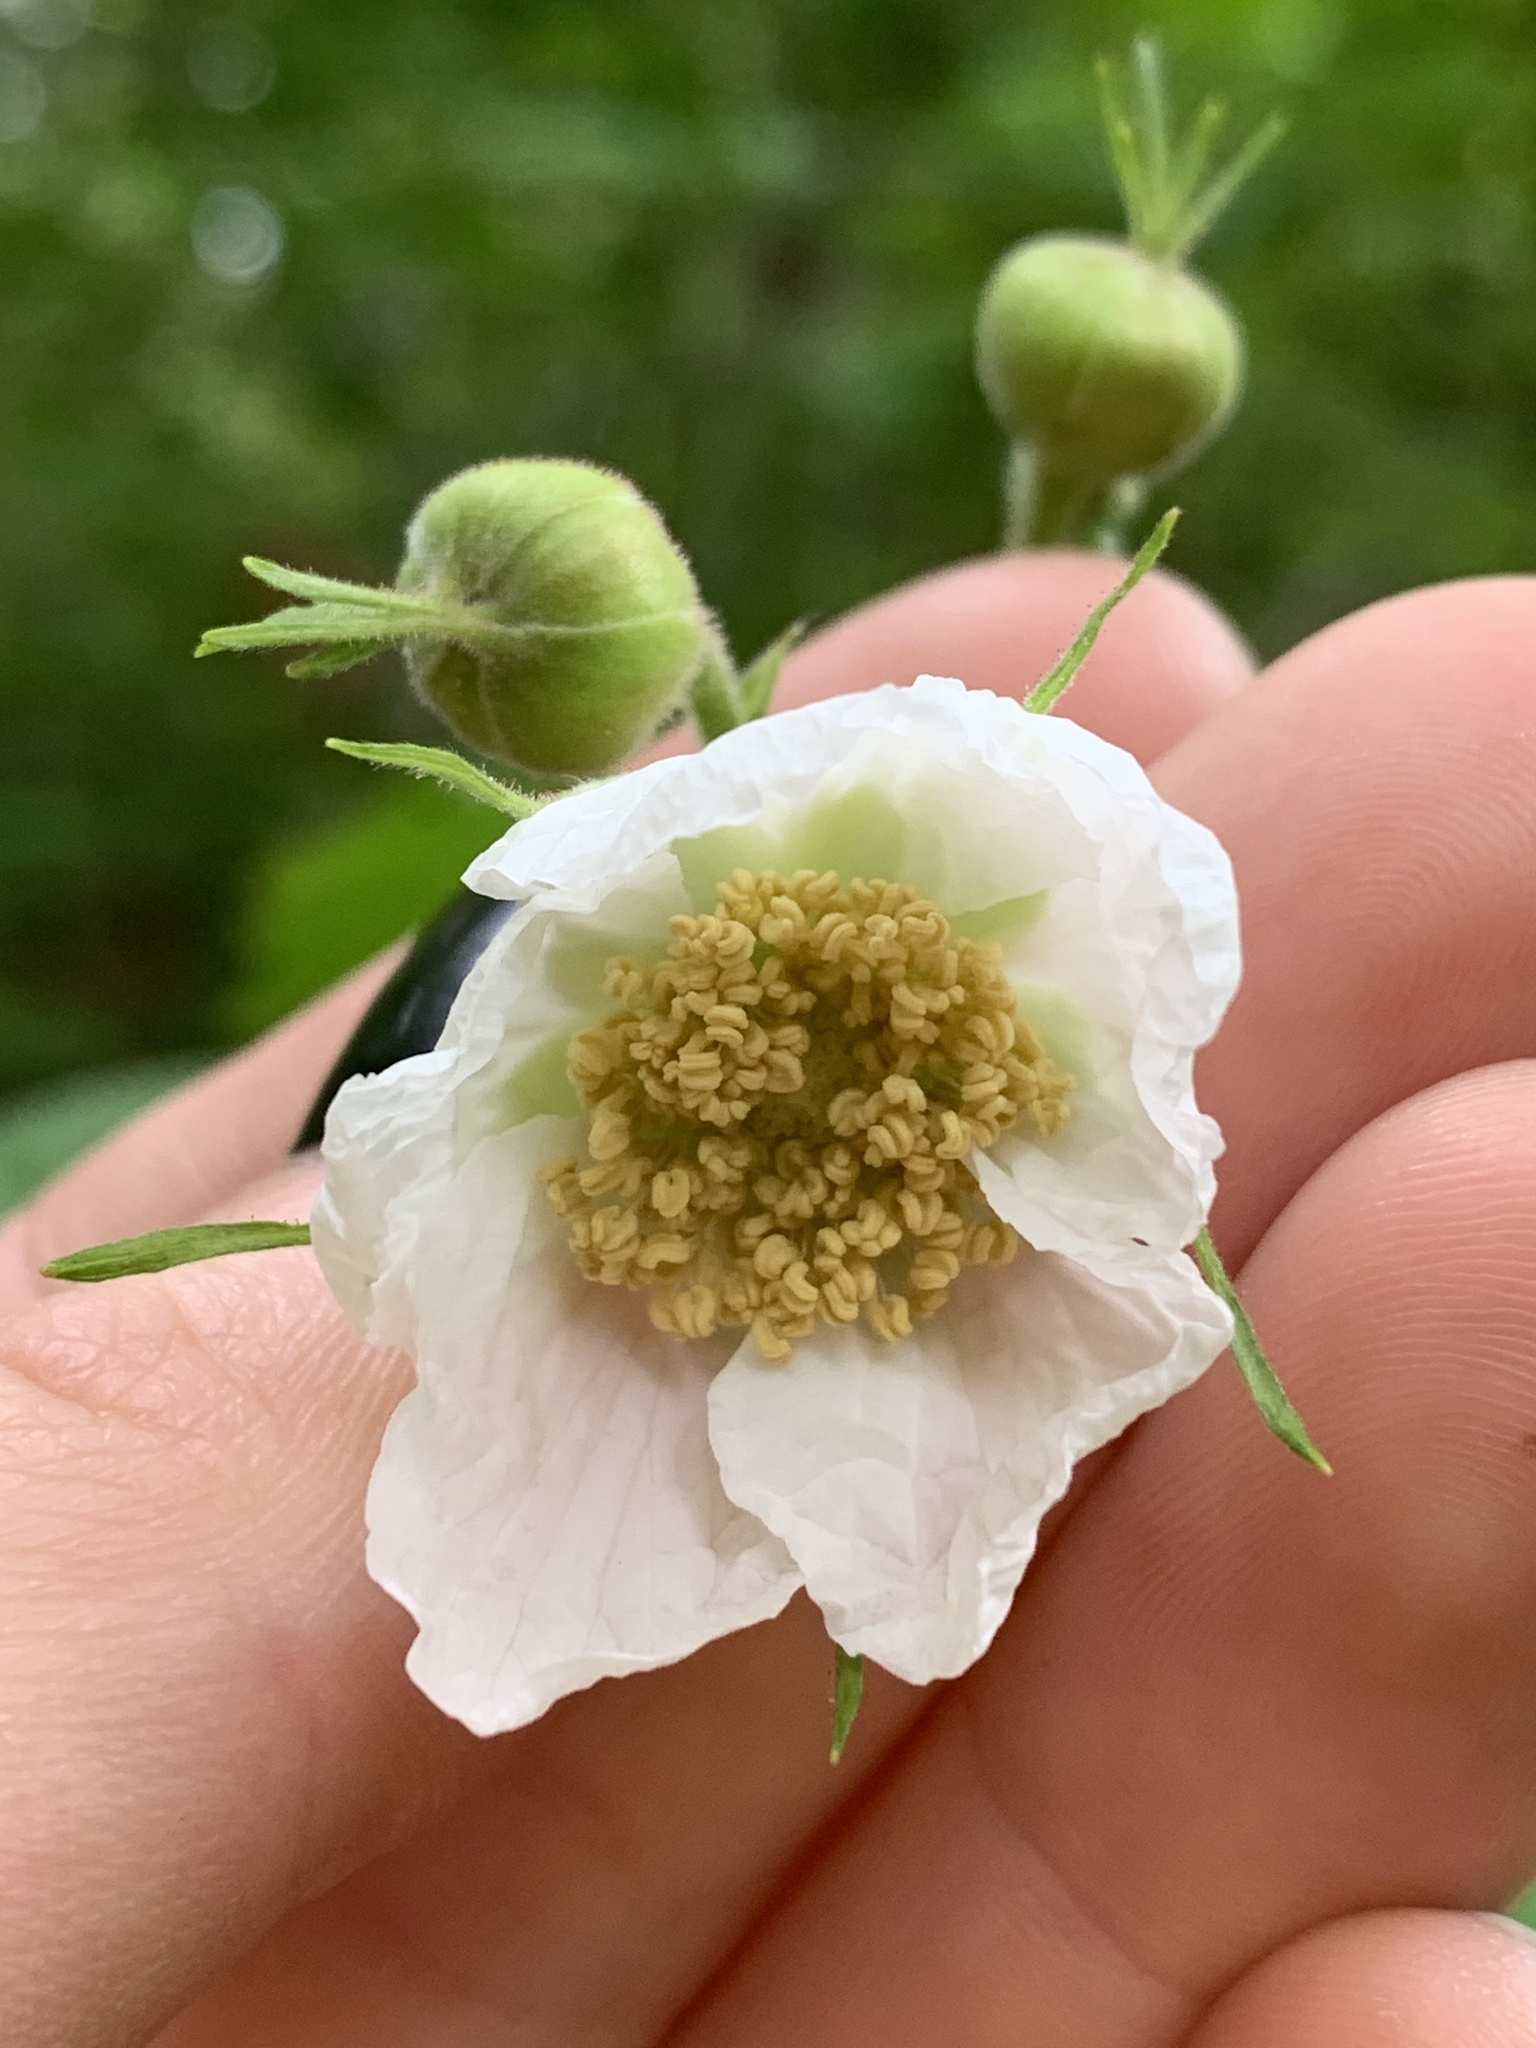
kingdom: Plantae
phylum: Tracheophyta
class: Magnoliopsida
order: Rosales
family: Rosaceae
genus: Rubus
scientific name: Rubus parviflorus
